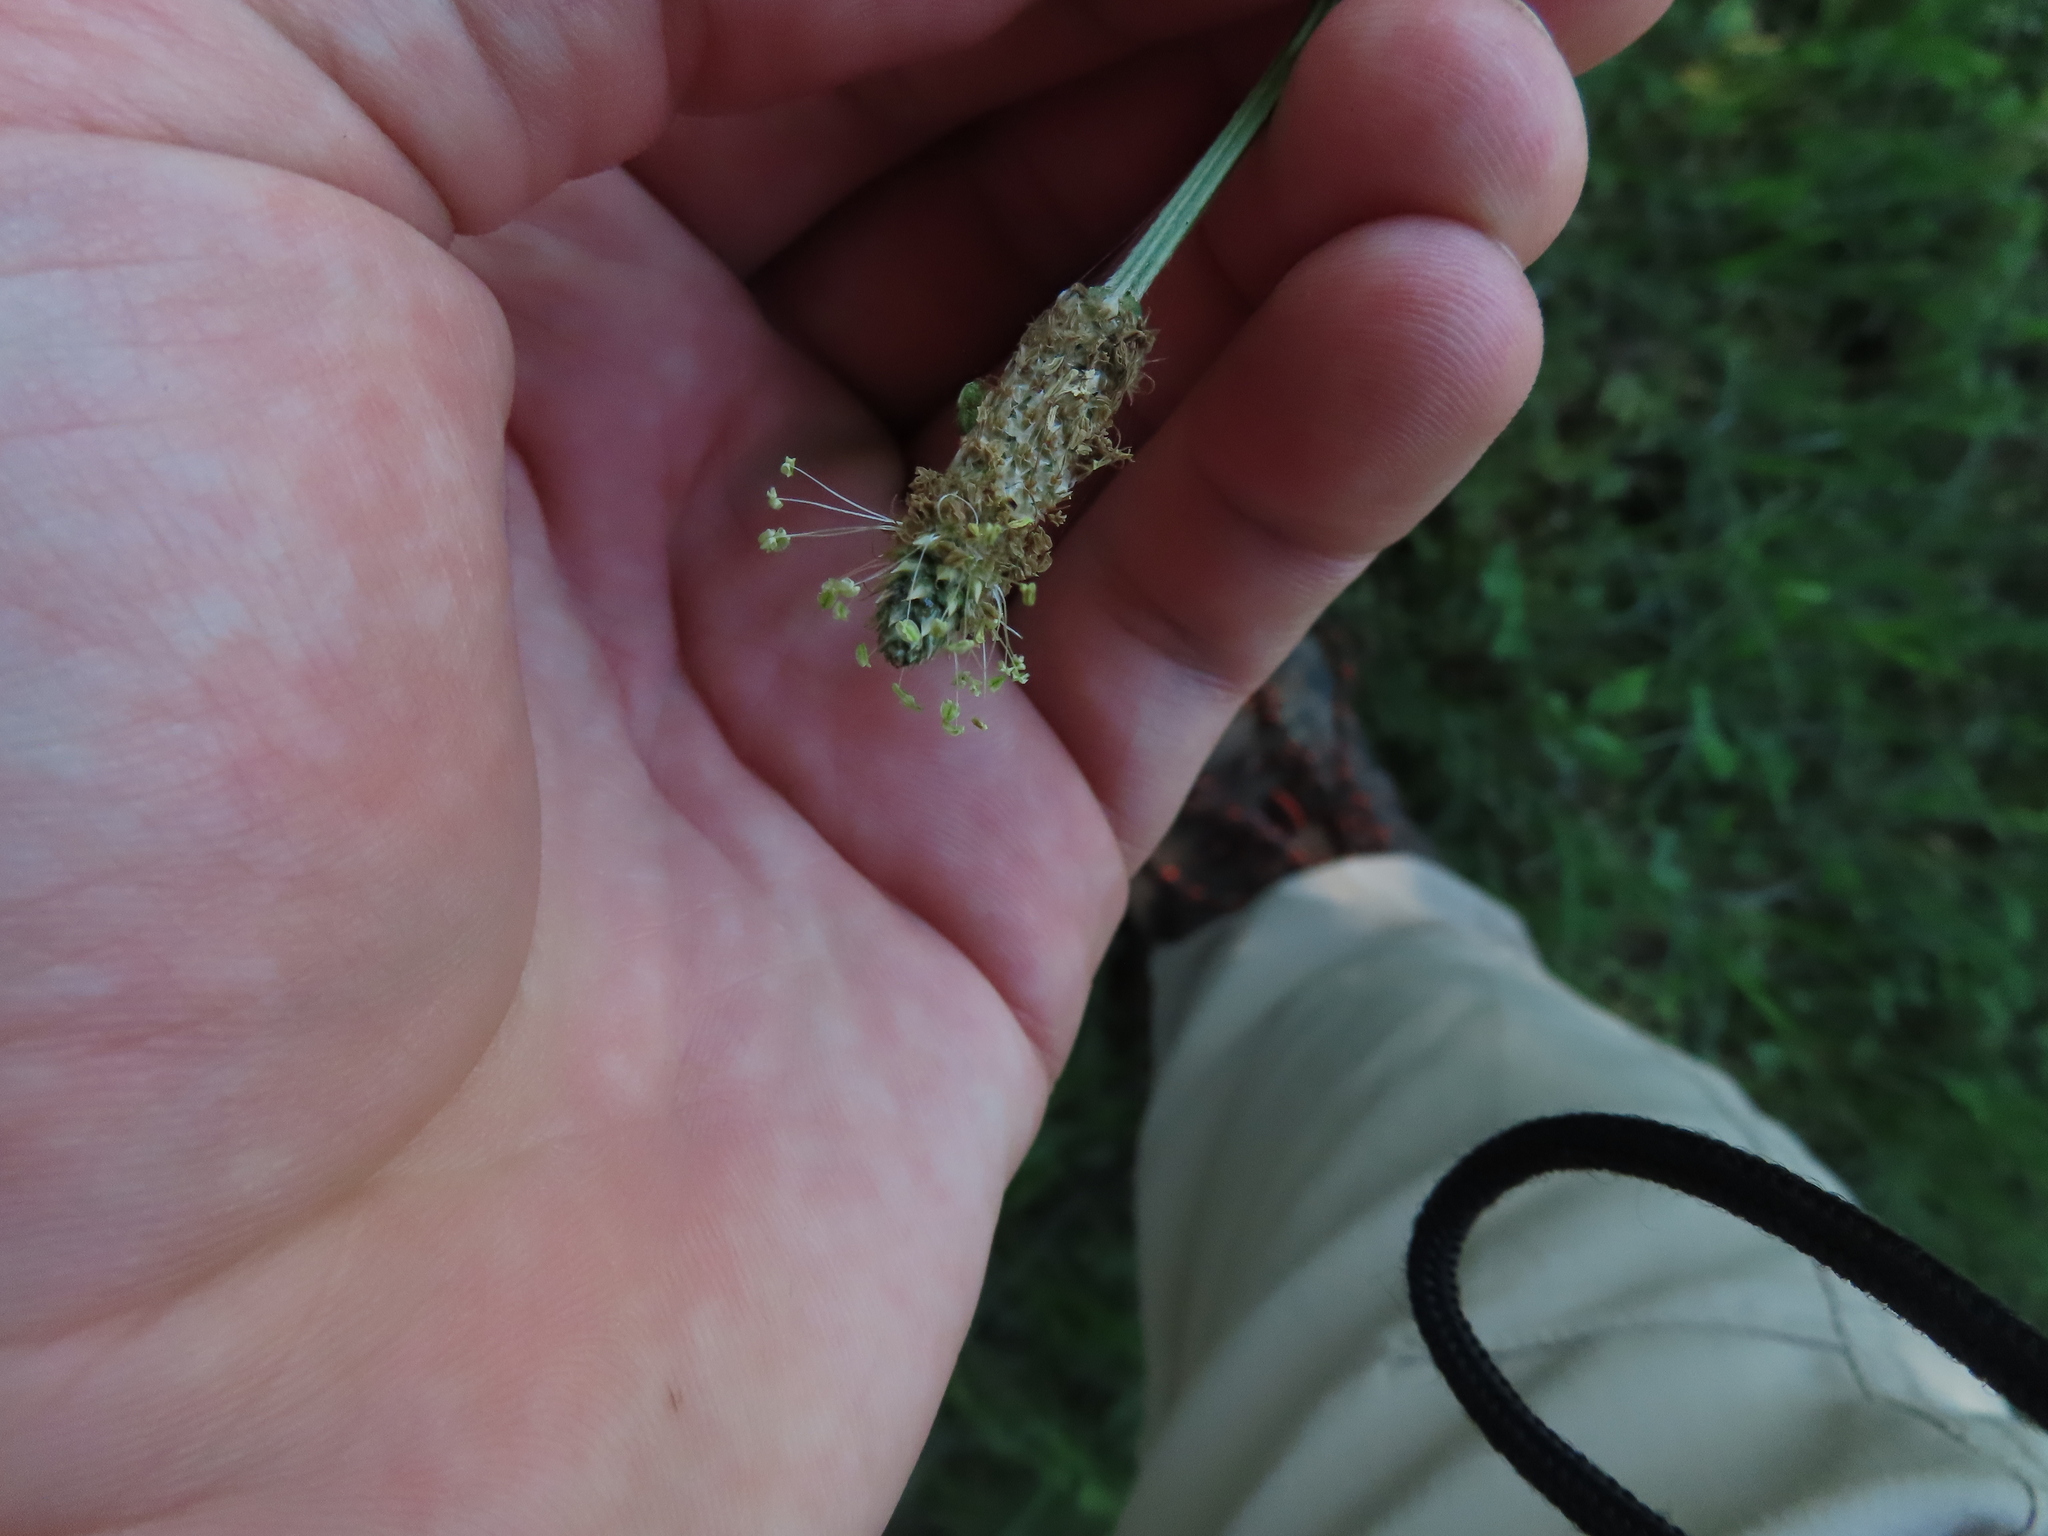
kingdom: Plantae
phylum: Tracheophyta
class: Magnoliopsida
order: Lamiales
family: Plantaginaceae
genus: Plantago
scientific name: Plantago lanceolata
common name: Ribwort plantain
